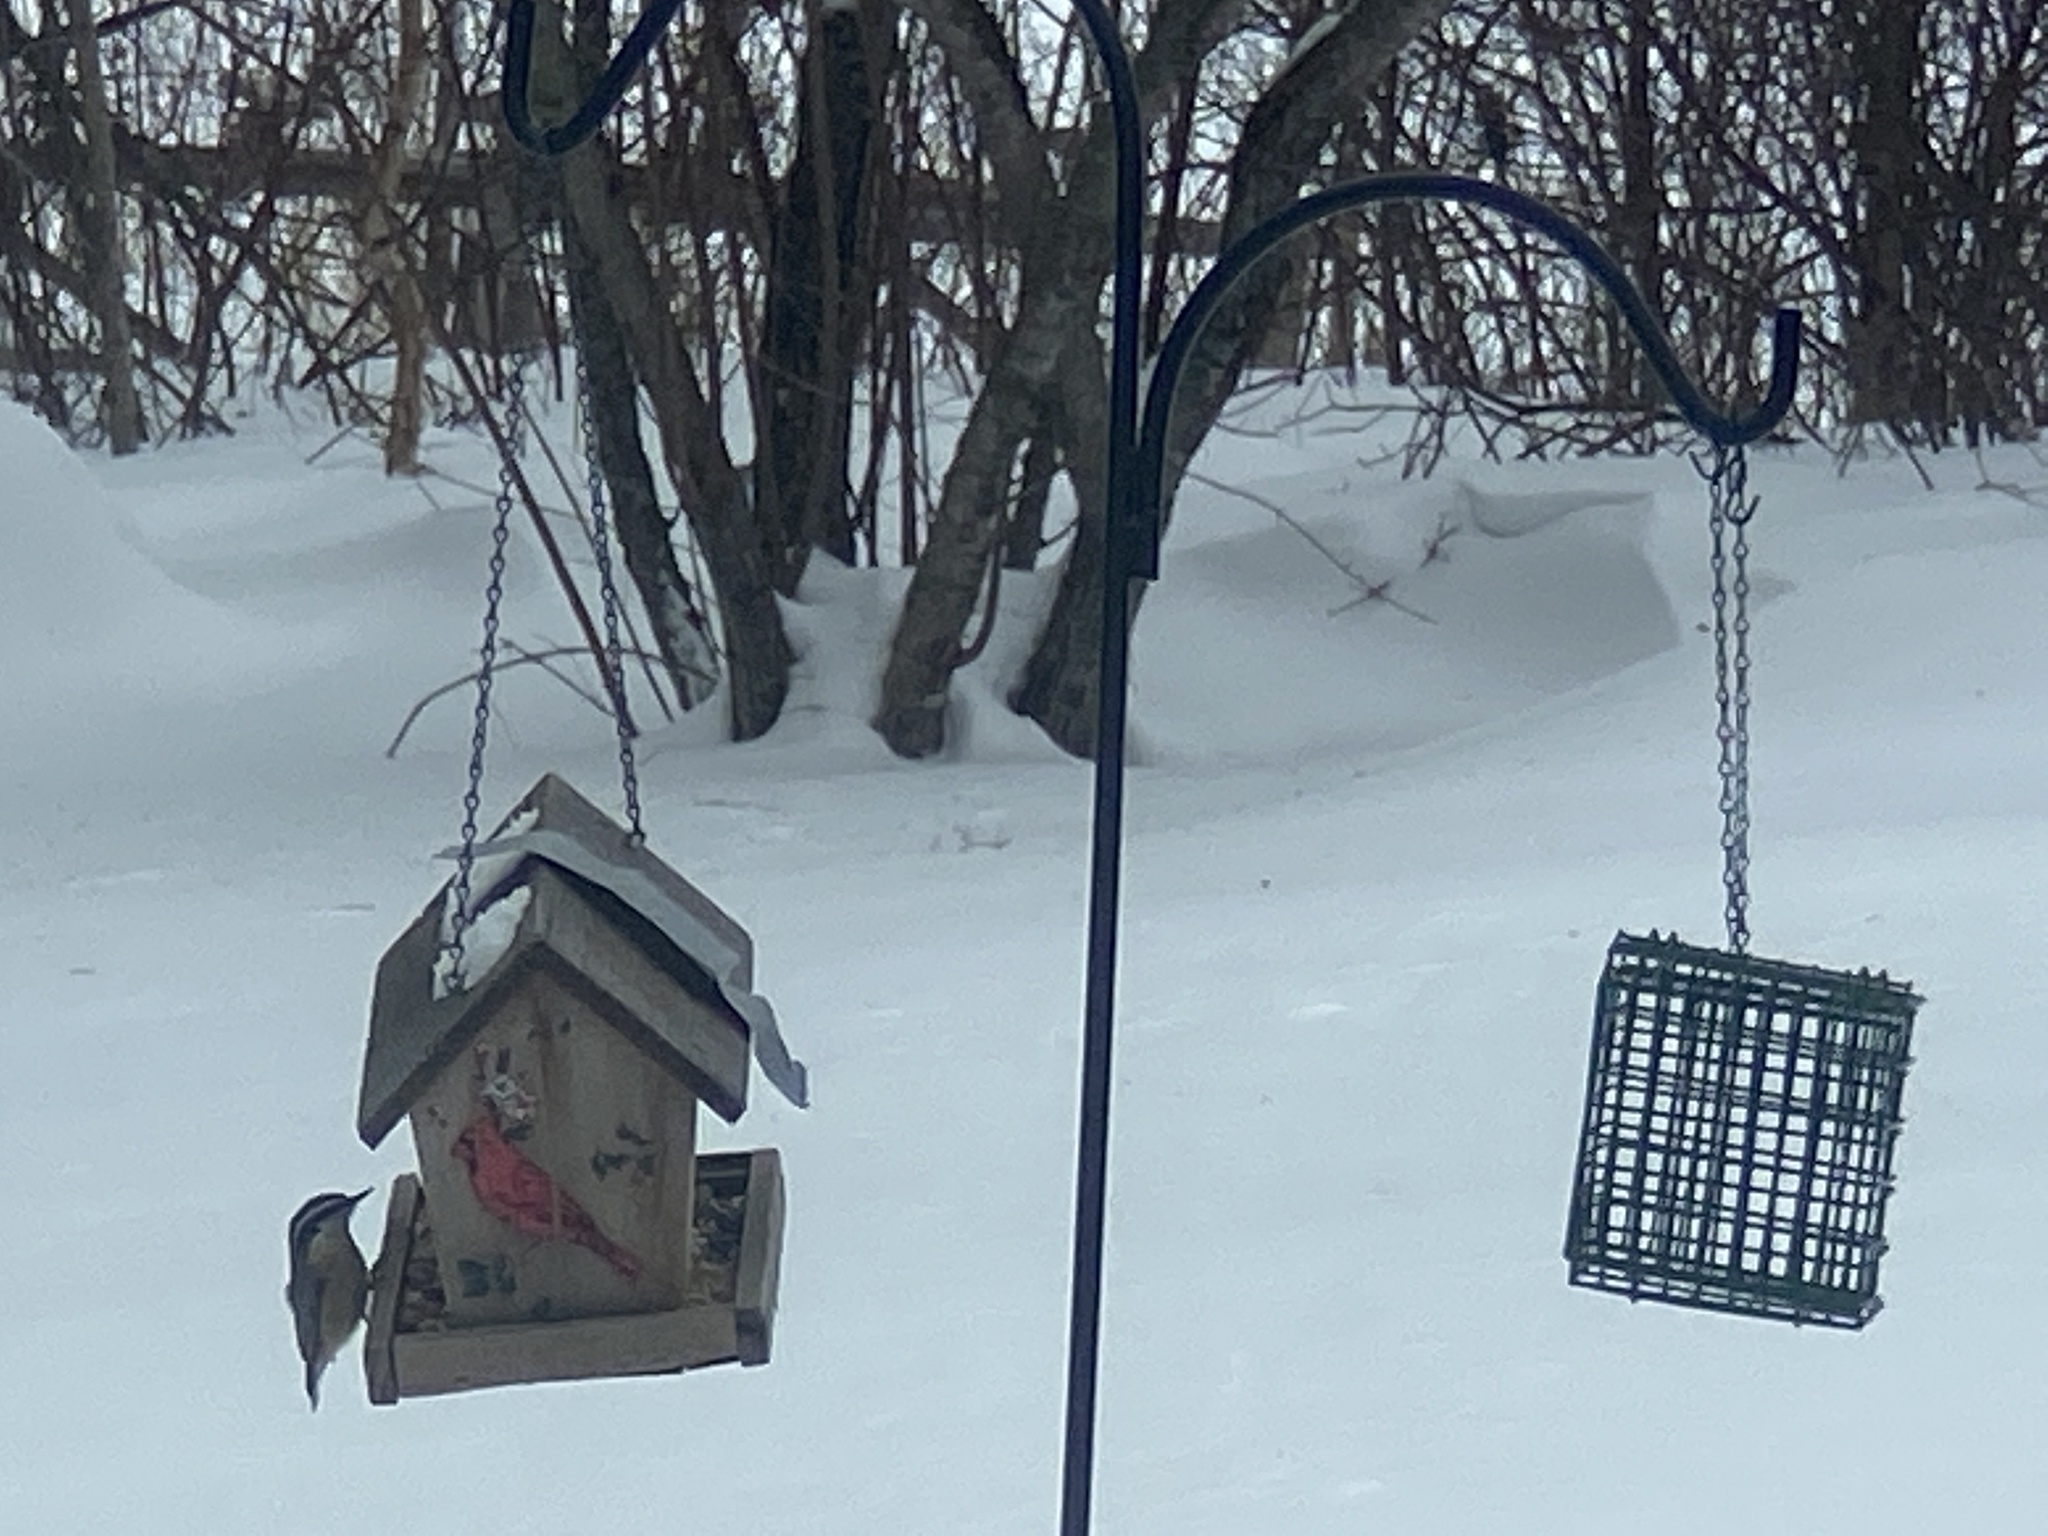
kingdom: Animalia
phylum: Chordata
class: Aves
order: Passeriformes
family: Sittidae
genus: Sitta
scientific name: Sitta canadensis
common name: Red-breasted nuthatch
